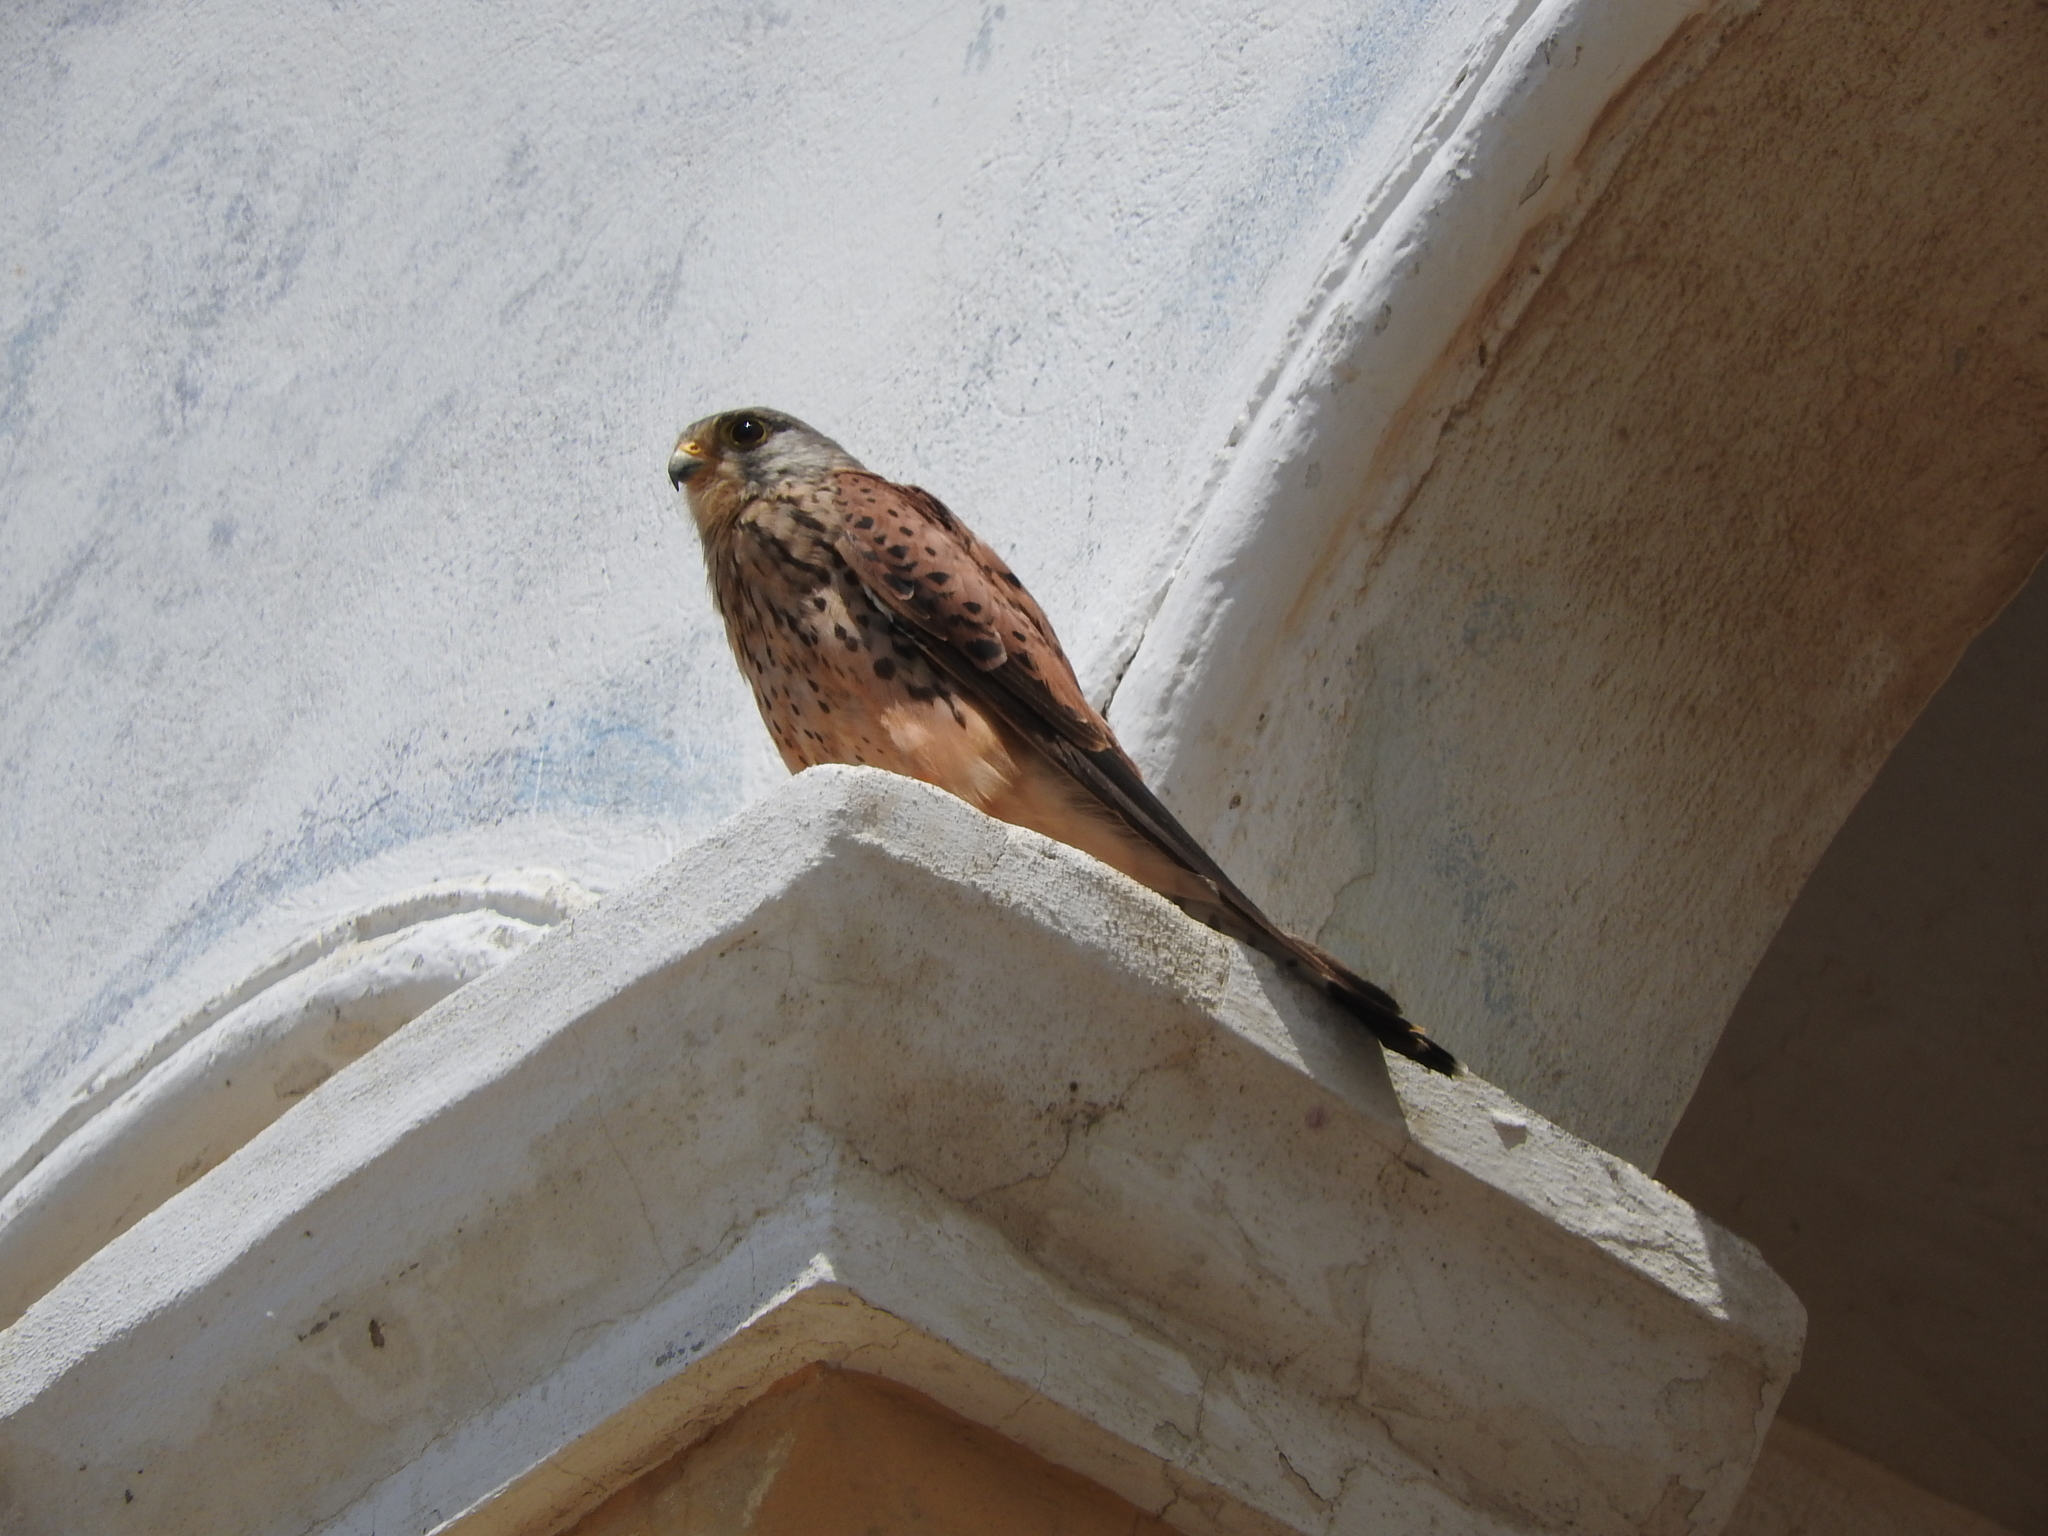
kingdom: Animalia
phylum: Chordata
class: Aves
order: Falconiformes
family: Falconidae
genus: Falco
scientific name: Falco tinnunculus
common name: Common kestrel
